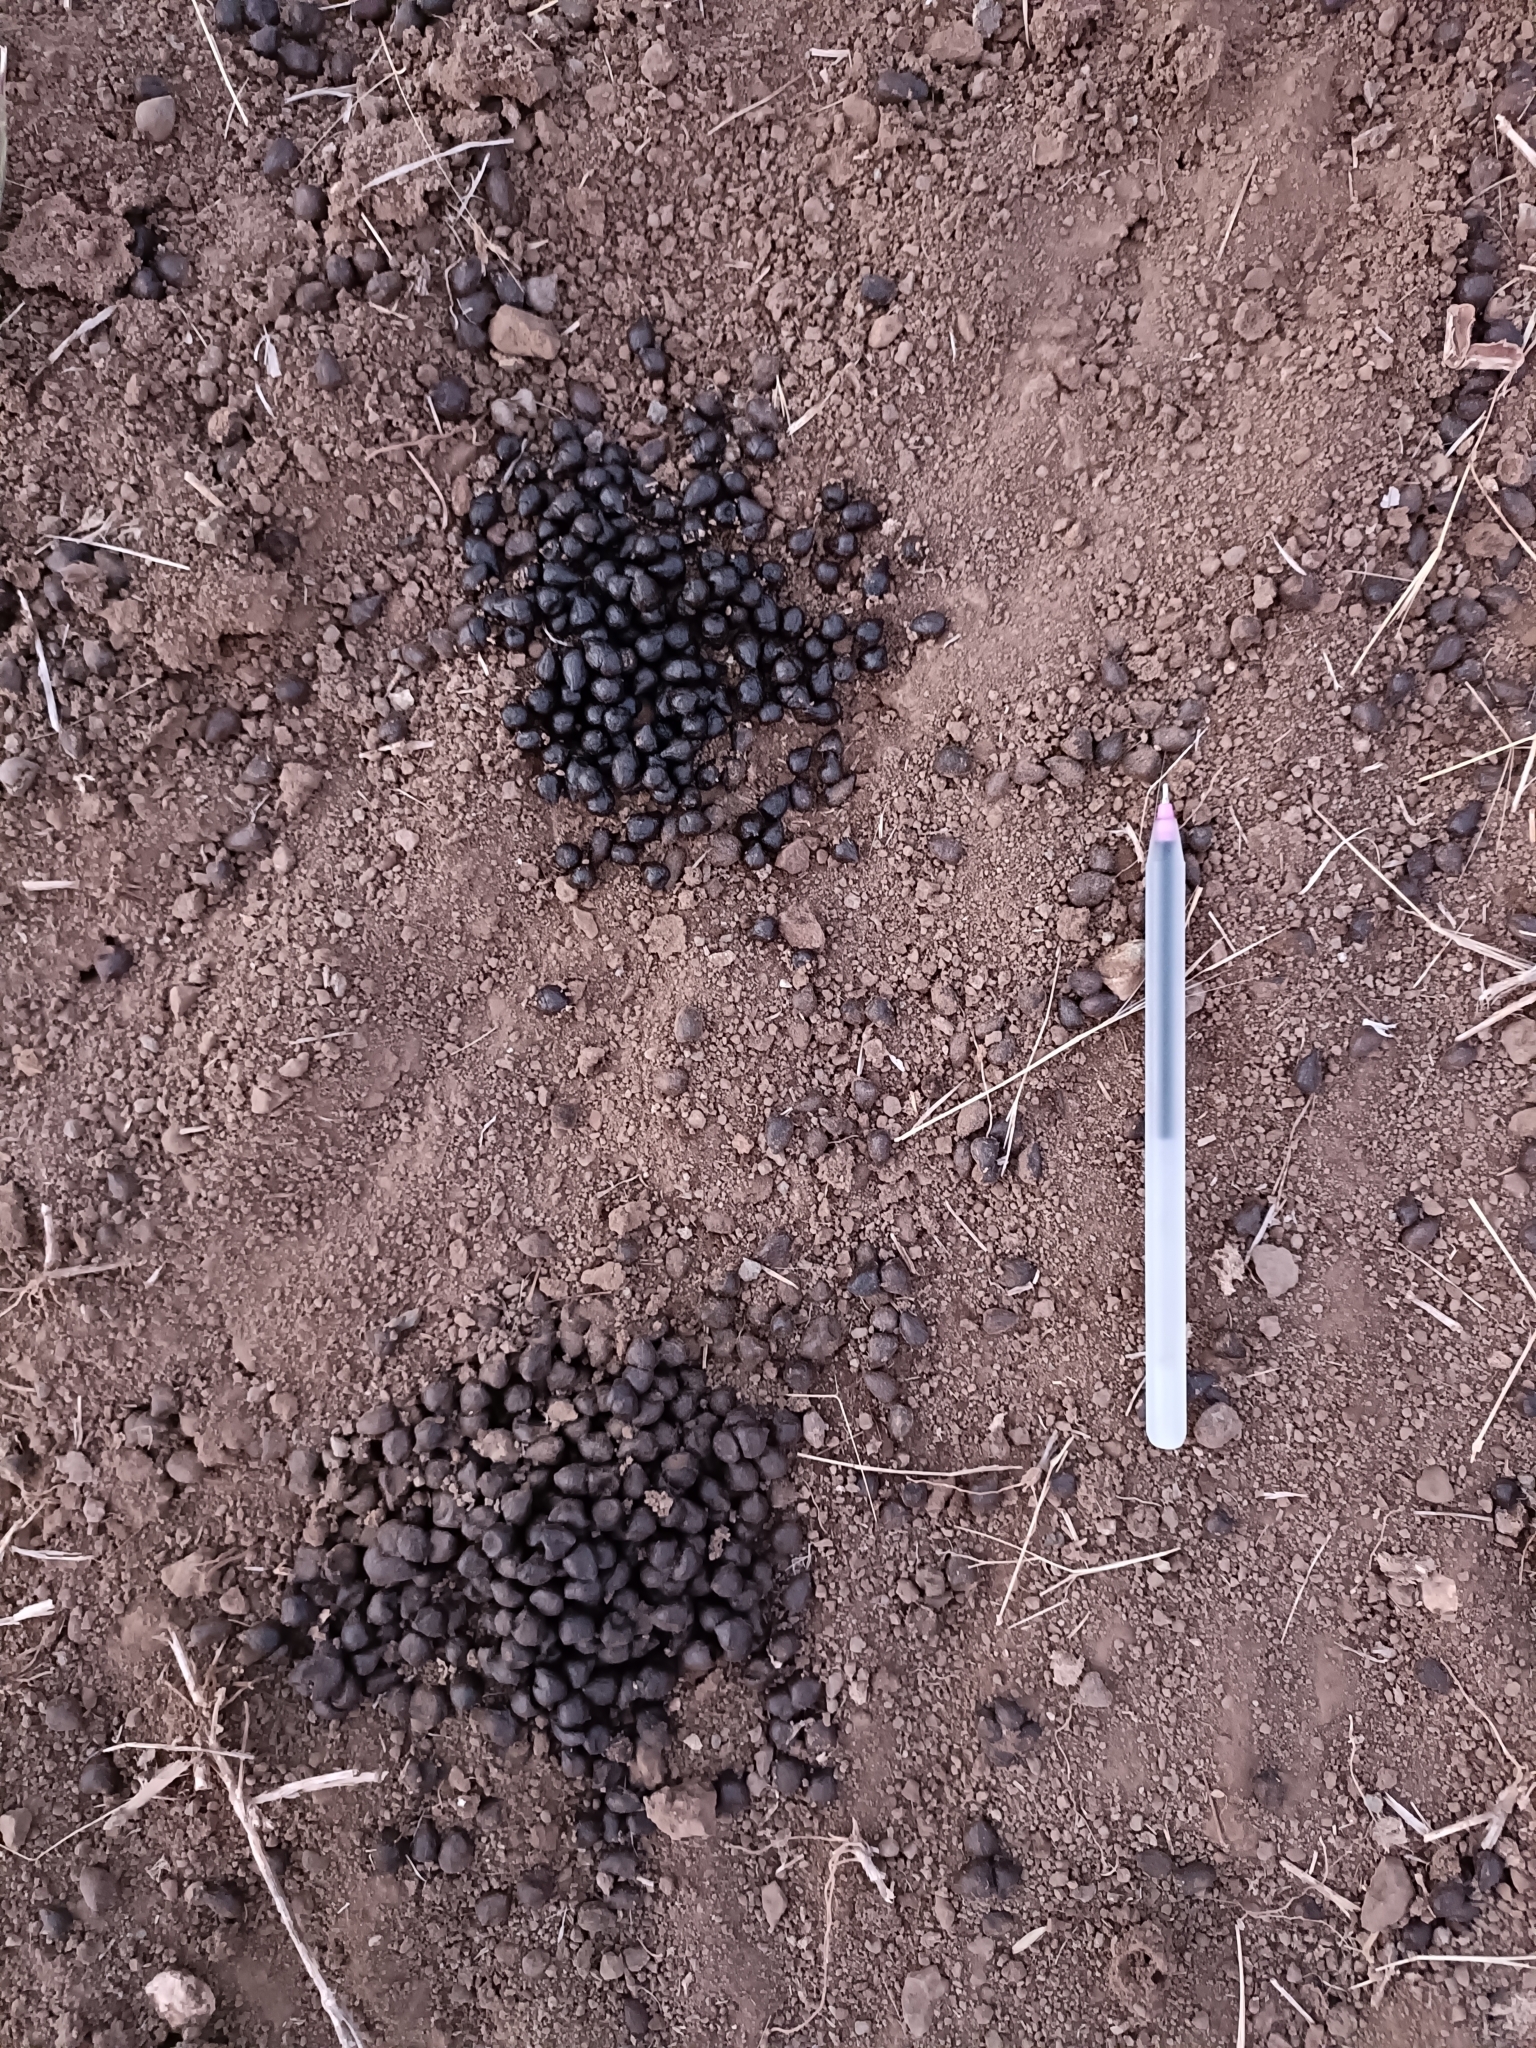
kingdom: Animalia
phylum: Chordata
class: Mammalia
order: Artiodactyla
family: Bovidae
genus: Gazella
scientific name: Gazella bennettii
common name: Indian gazelle
